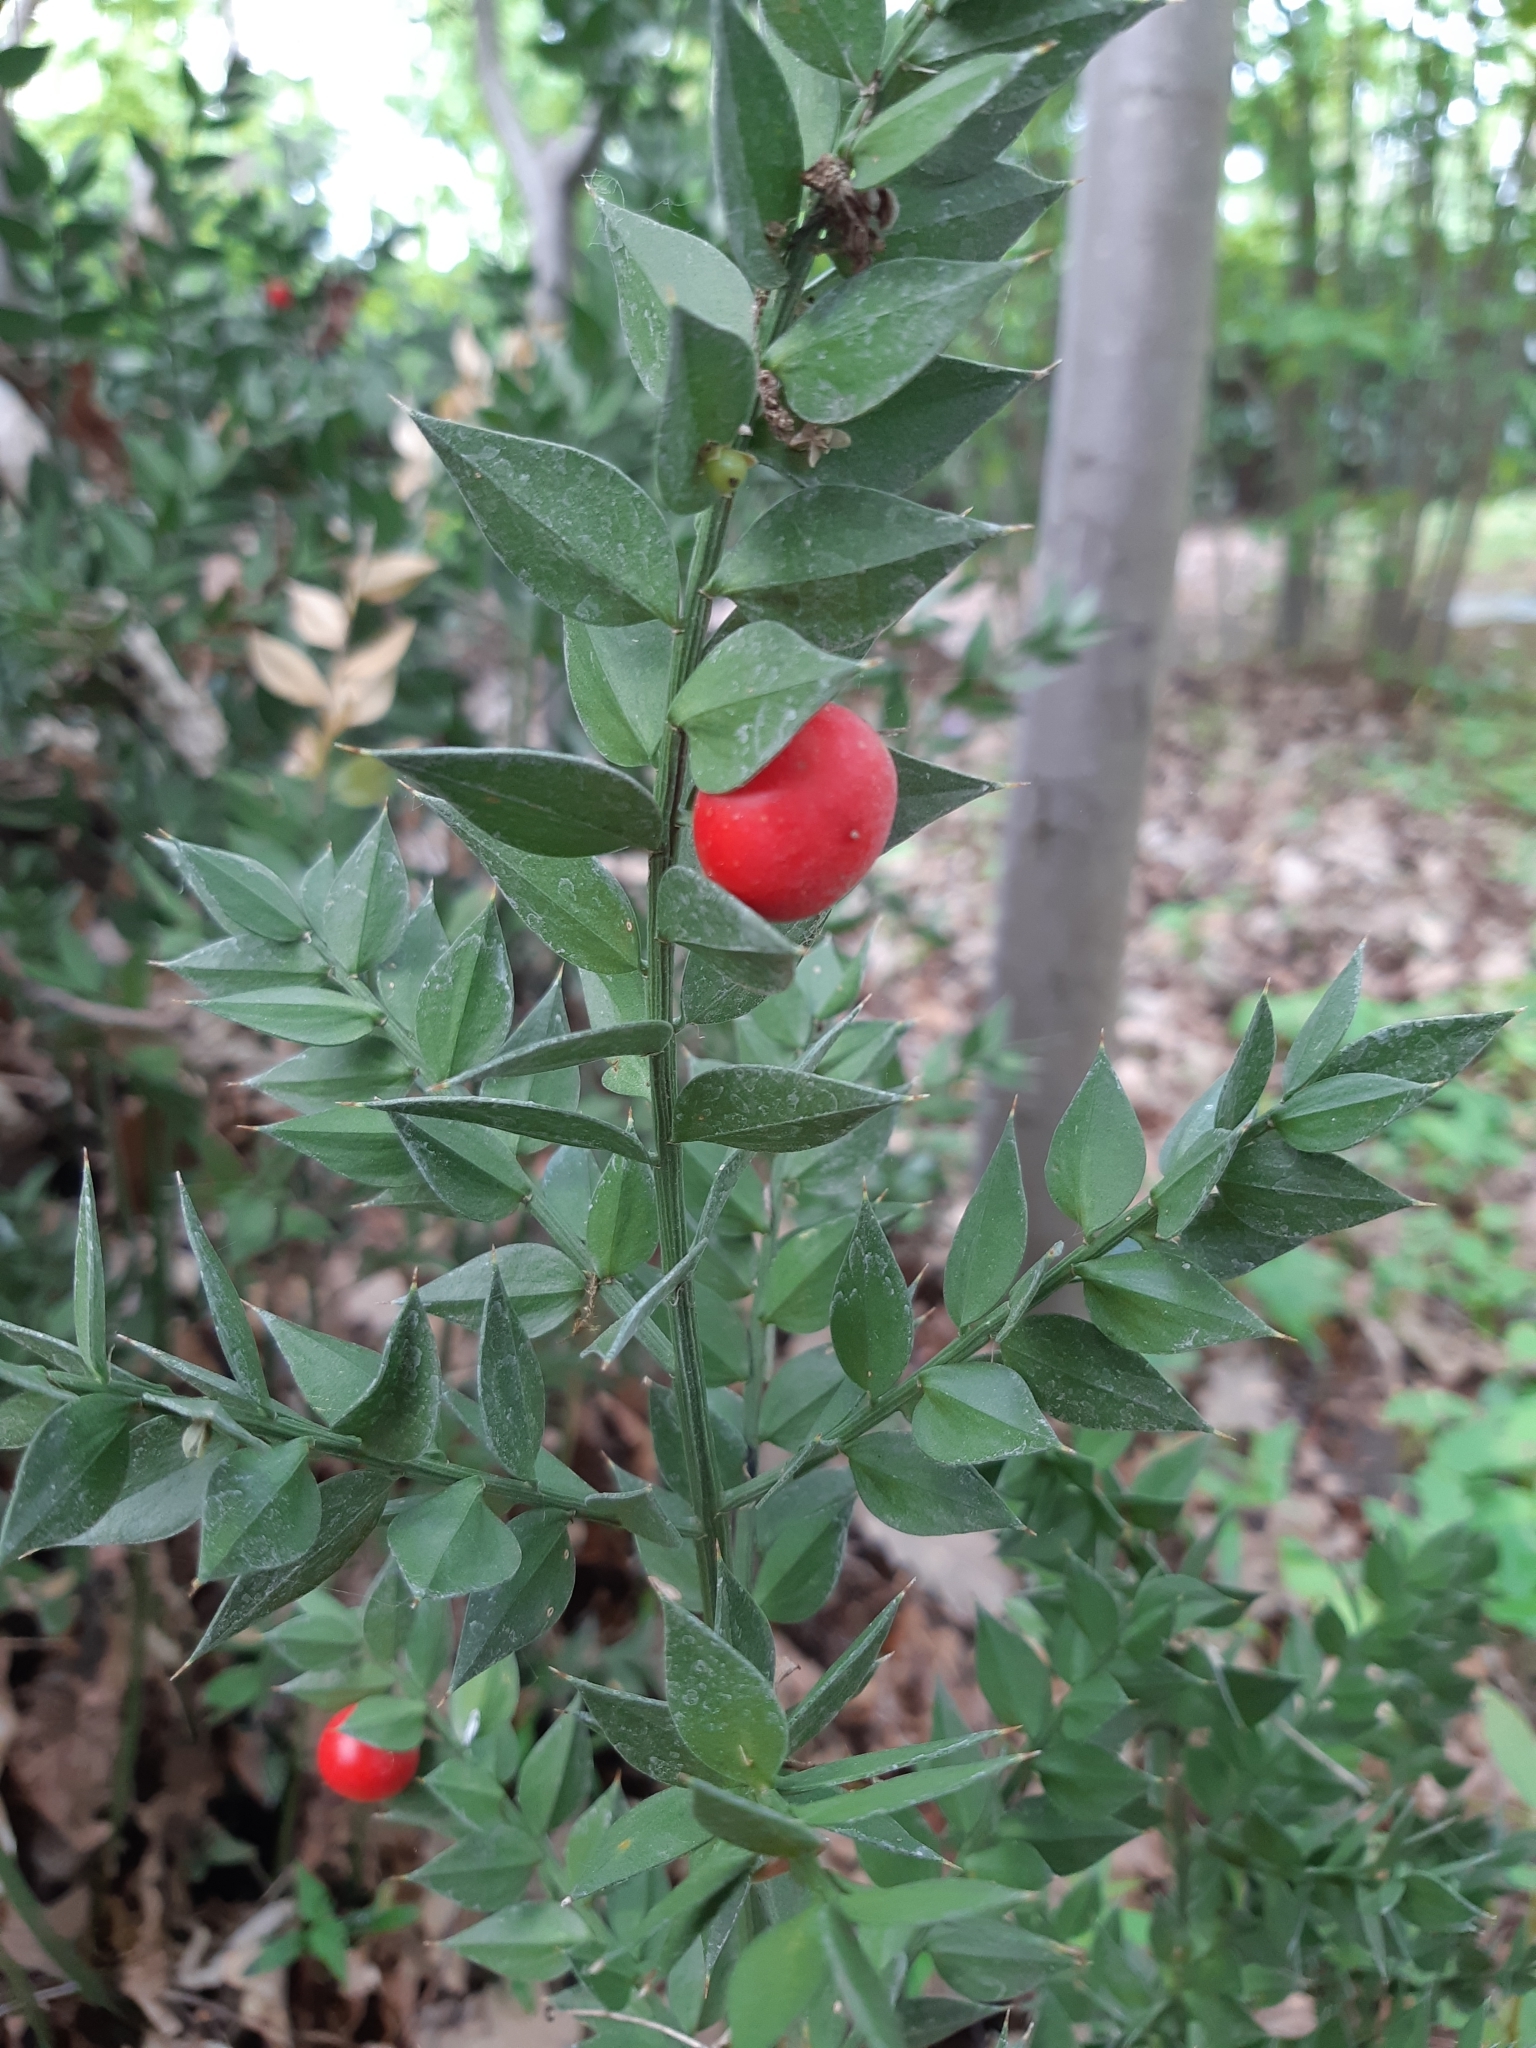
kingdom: Plantae
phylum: Tracheophyta
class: Liliopsida
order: Asparagales
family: Asparagaceae
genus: Ruscus
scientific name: Ruscus aculeatus
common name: Butcher's-broom
